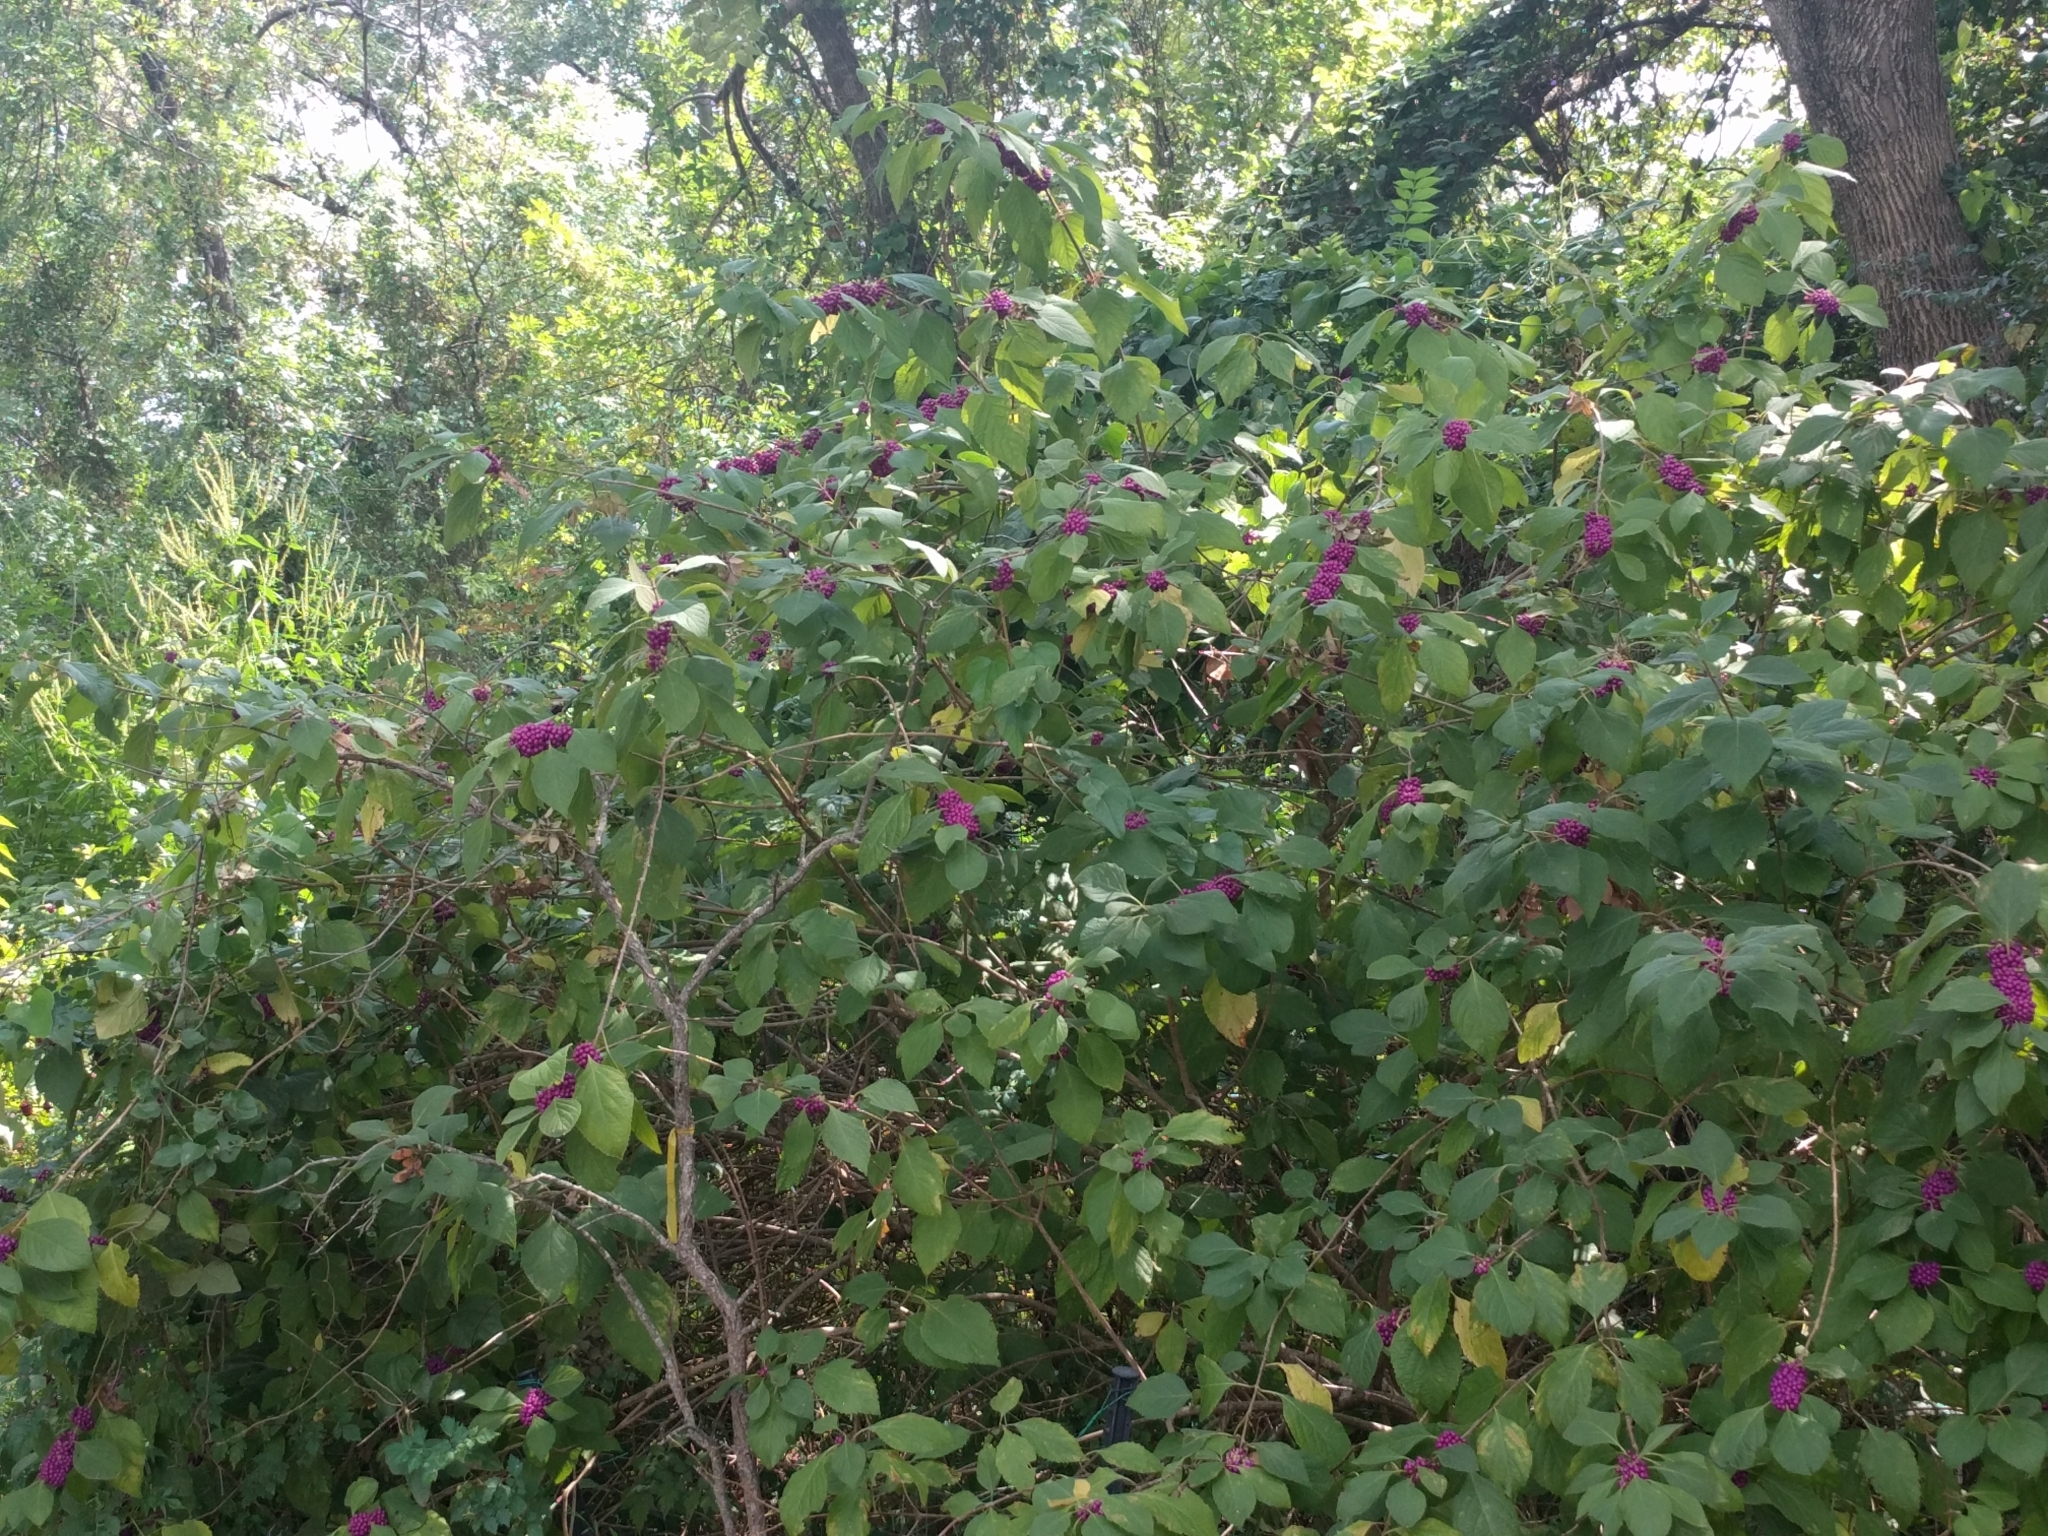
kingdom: Plantae
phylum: Tracheophyta
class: Magnoliopsida
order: Lamiales
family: Lamiaceae
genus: Callicarpa
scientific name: Callicarpa americana
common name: American beautyberry
